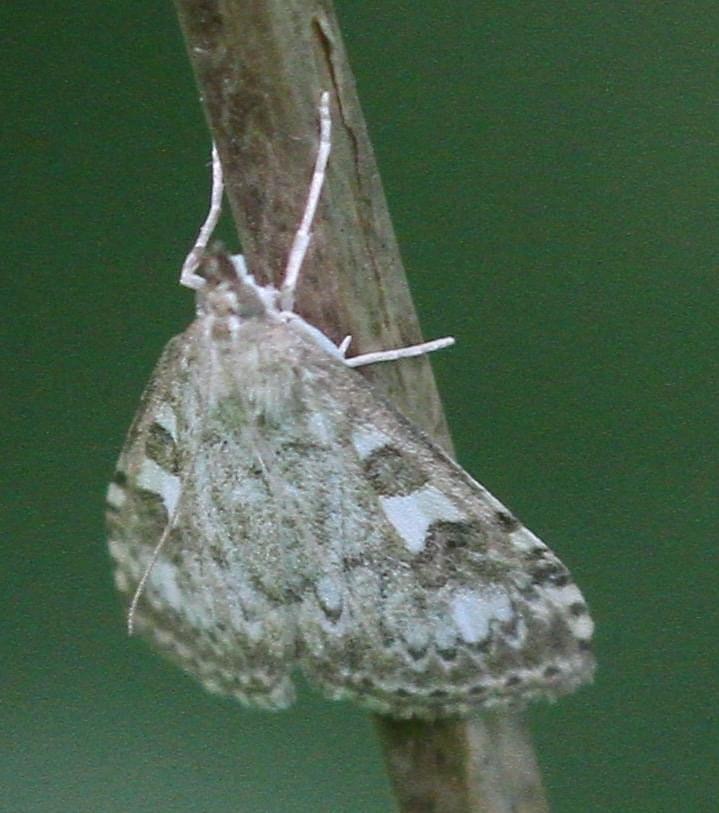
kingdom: Animalia
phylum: Arthropoda
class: Insecta
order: Lepidoptera
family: Crambidae
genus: Udea
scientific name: Udea olivalis
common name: Olive pearl
